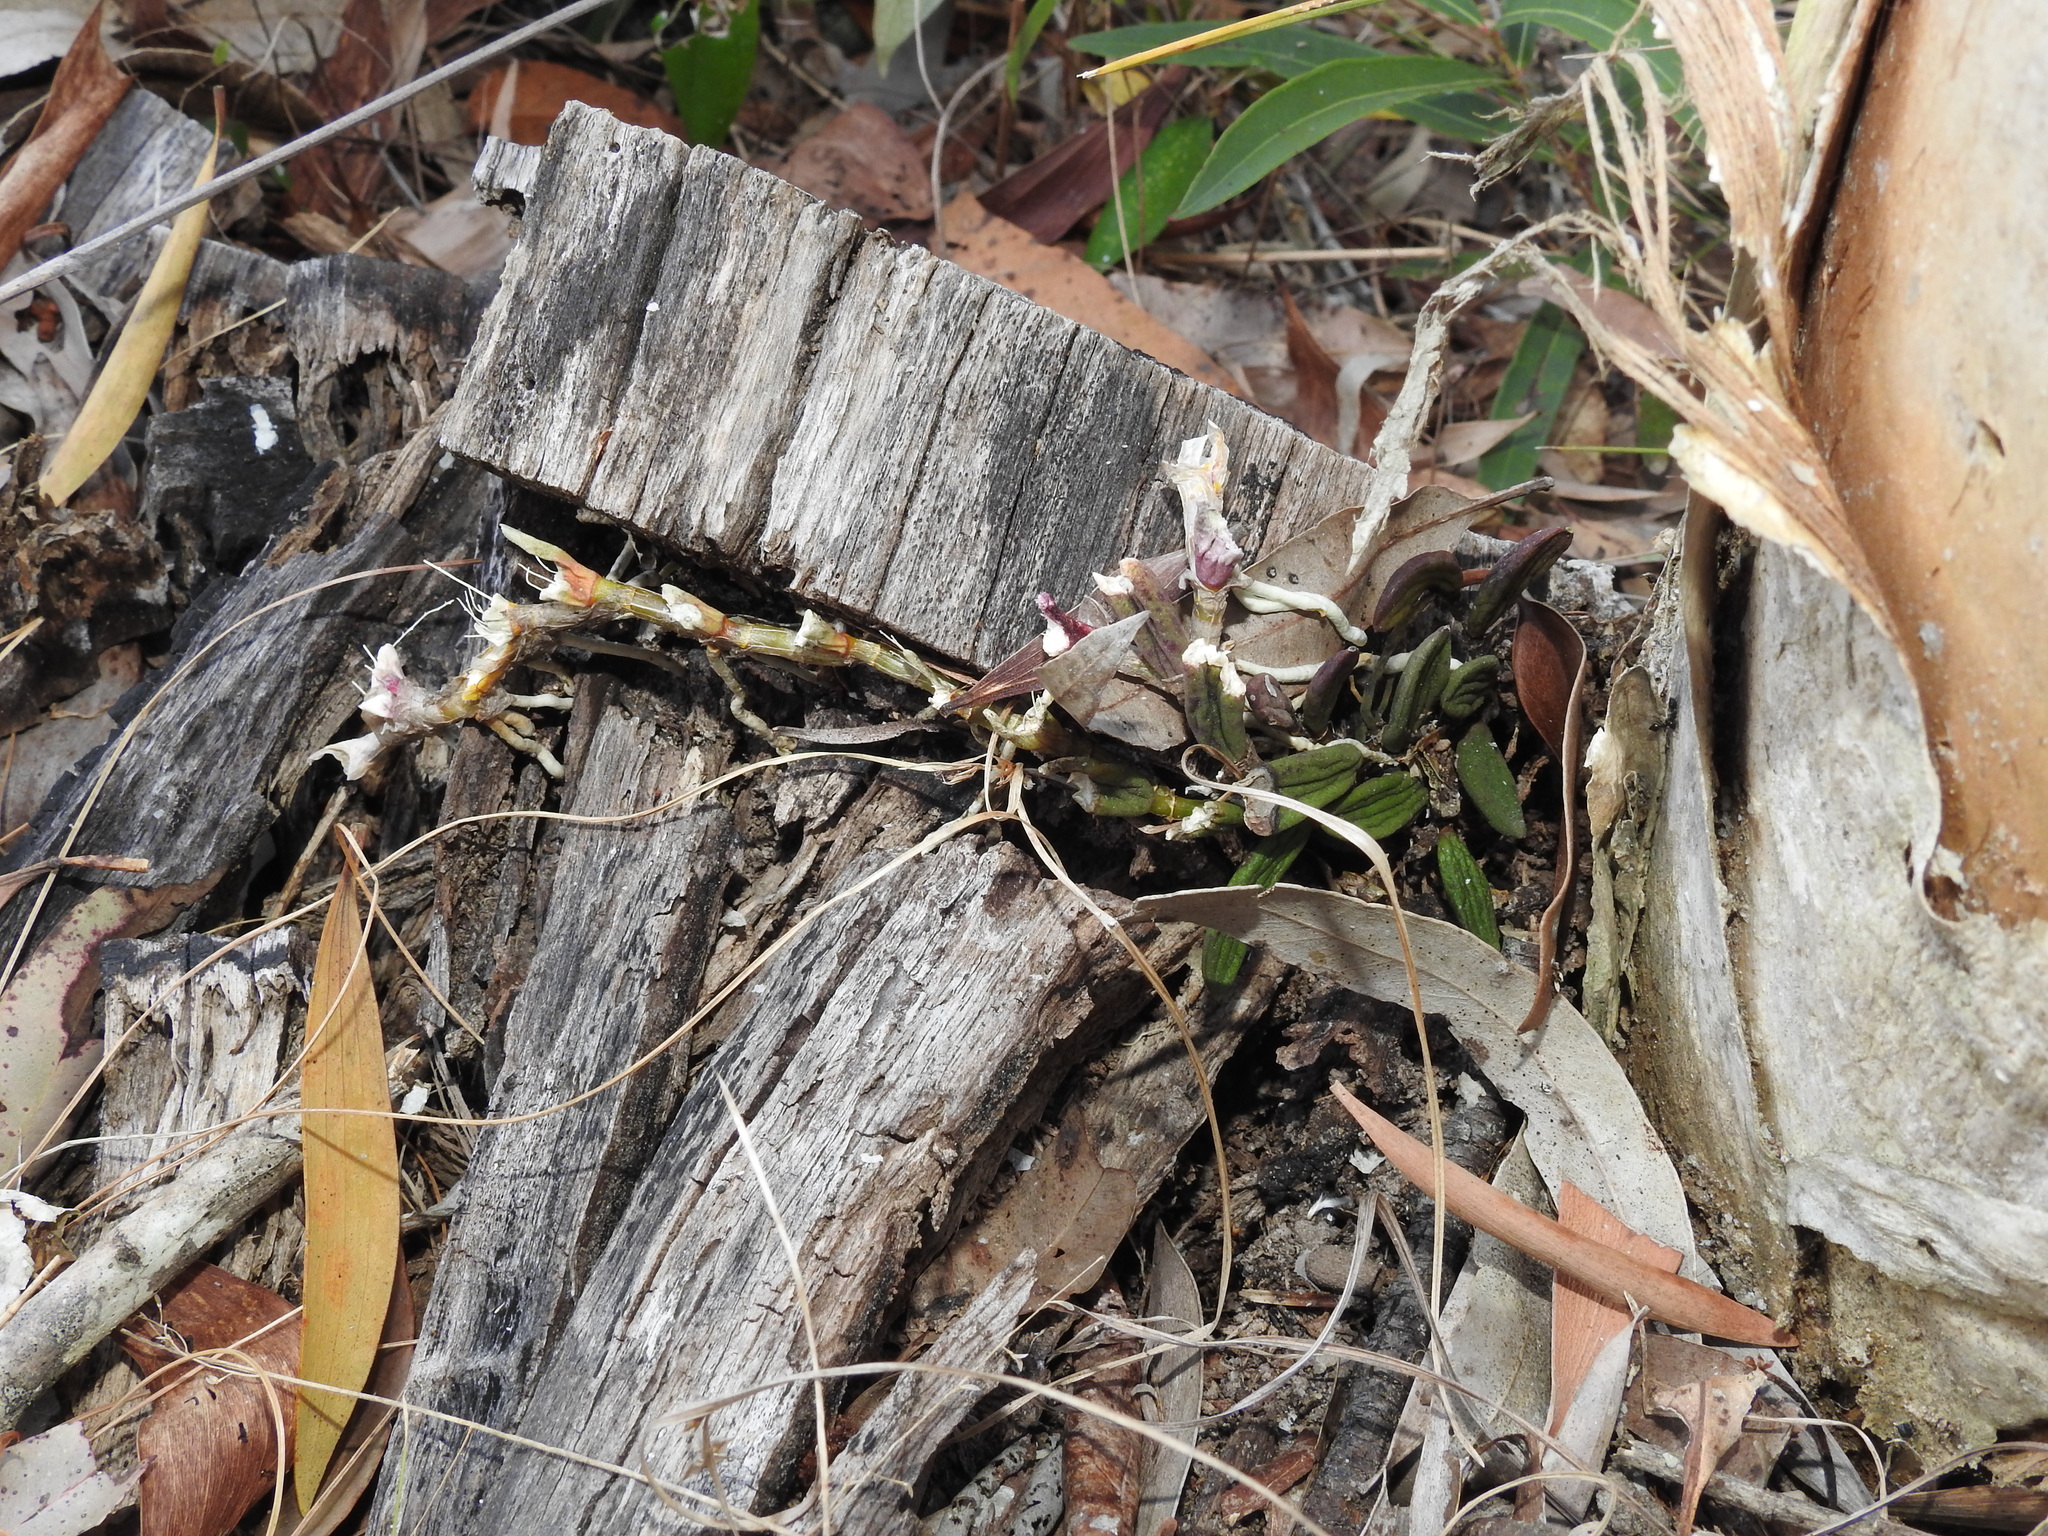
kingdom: Plantae
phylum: Tracheophyta
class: Liliopsida
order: Asparagales
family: Orchidaceae
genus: Dendrobium
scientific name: Dendrobium linguiforme
